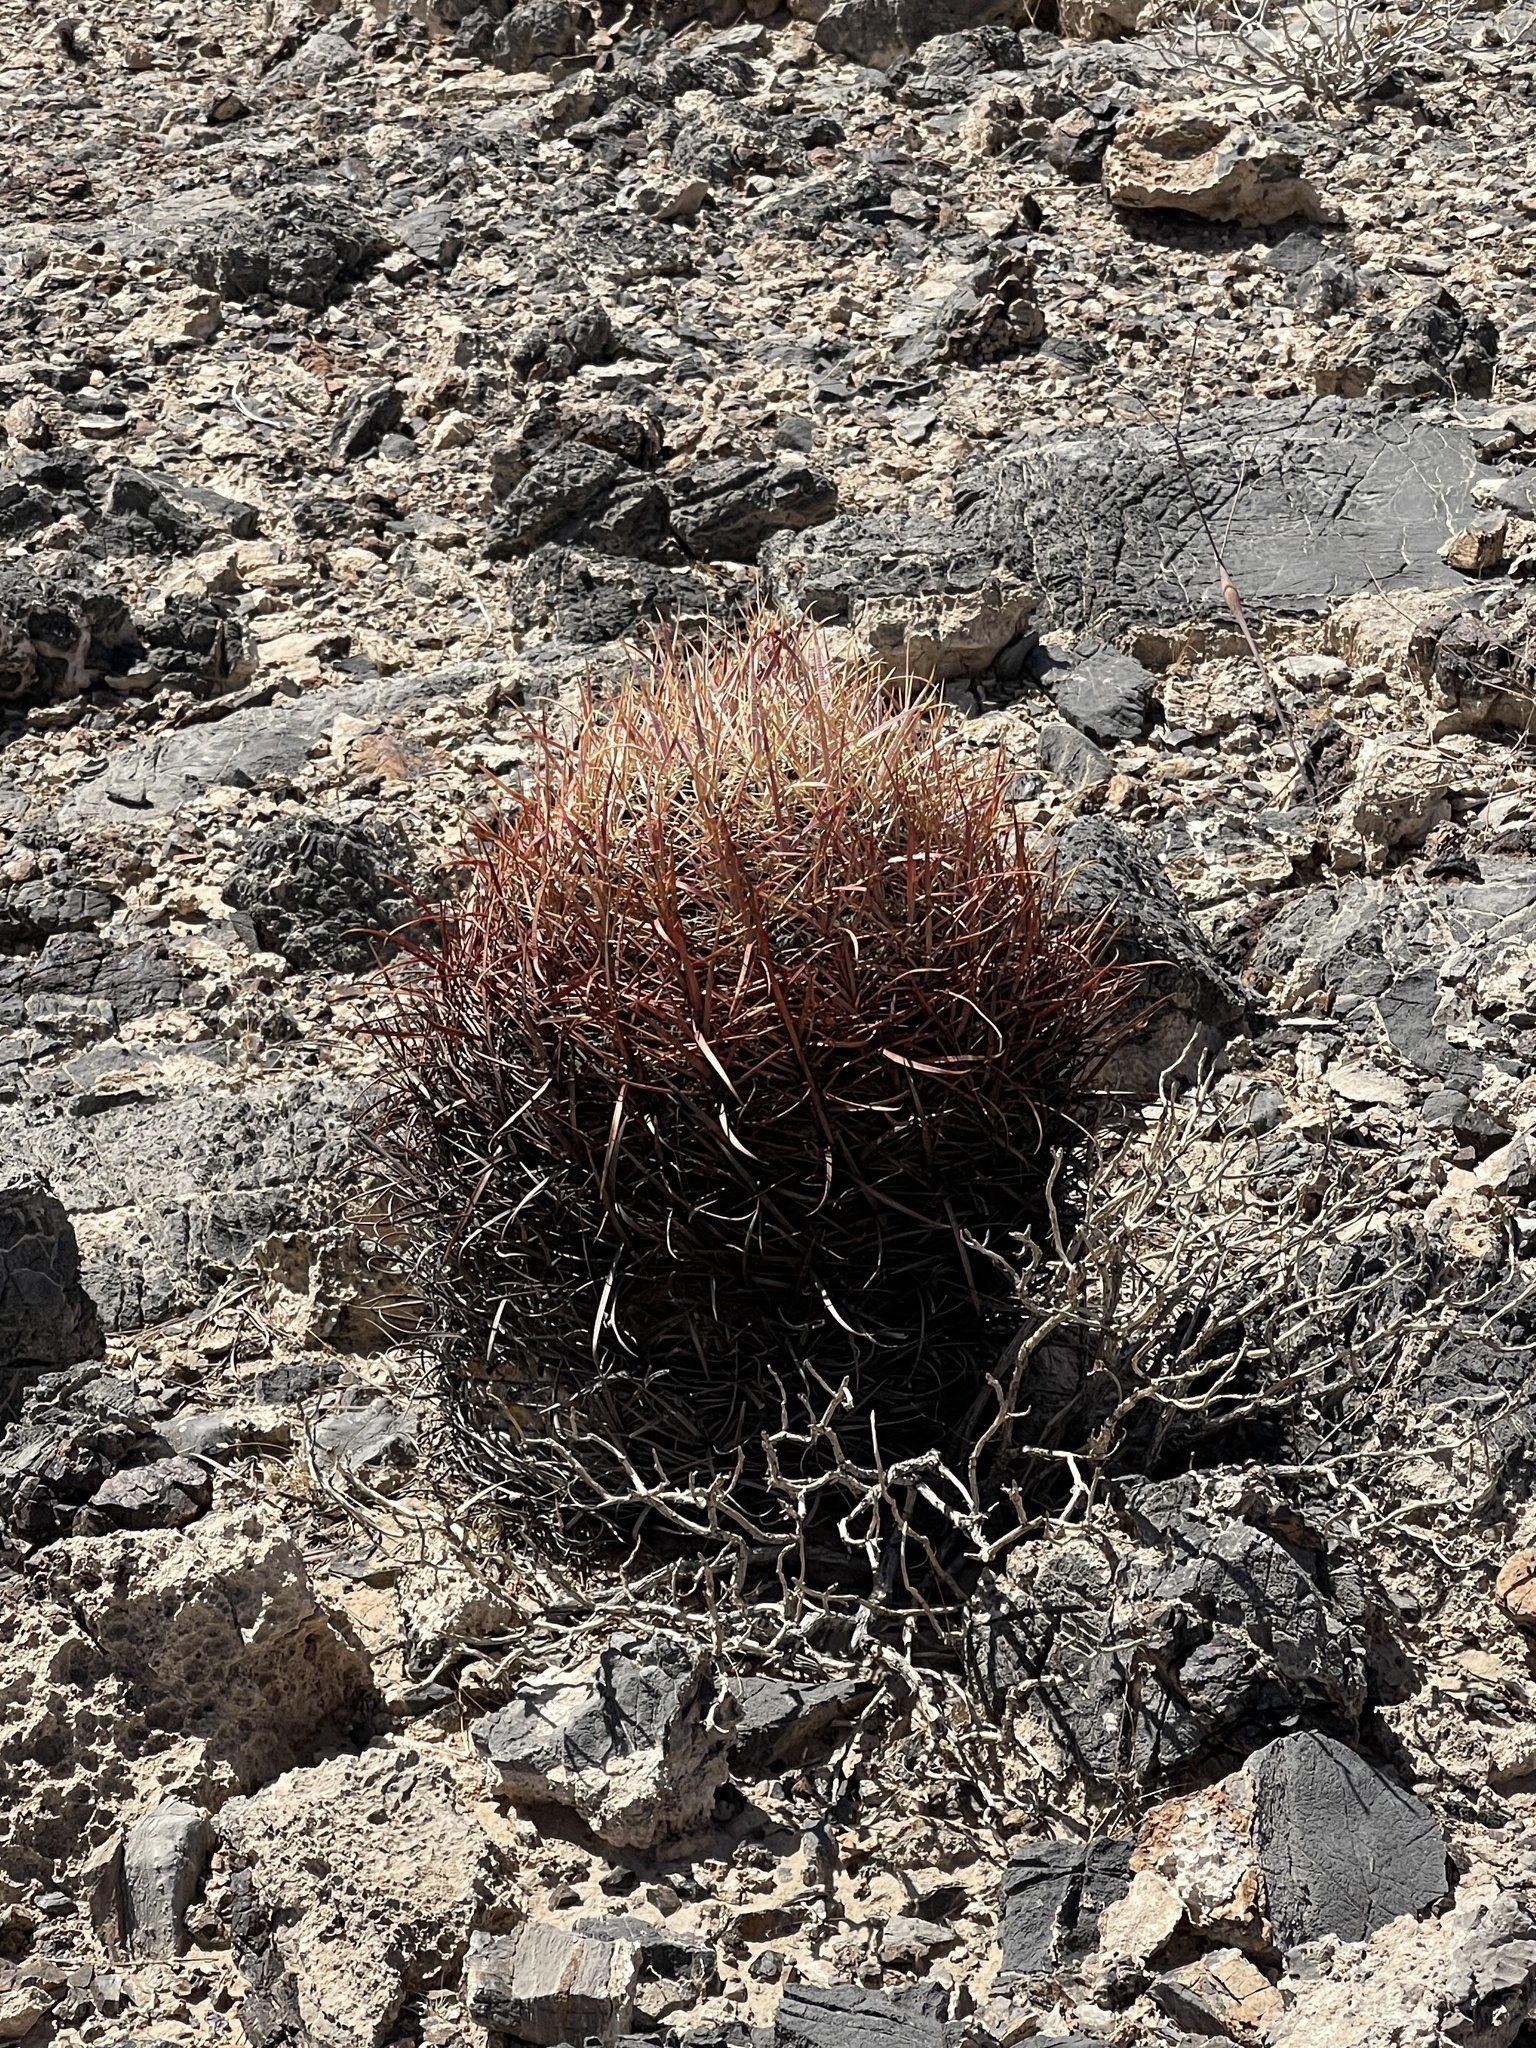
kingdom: Plantae
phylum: Tracheophyta
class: Magnoliopsida
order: Caryophyllales
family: Cactaceae
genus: Ferocactus
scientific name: Ferocactus cylindraceus
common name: California barrel cactus
